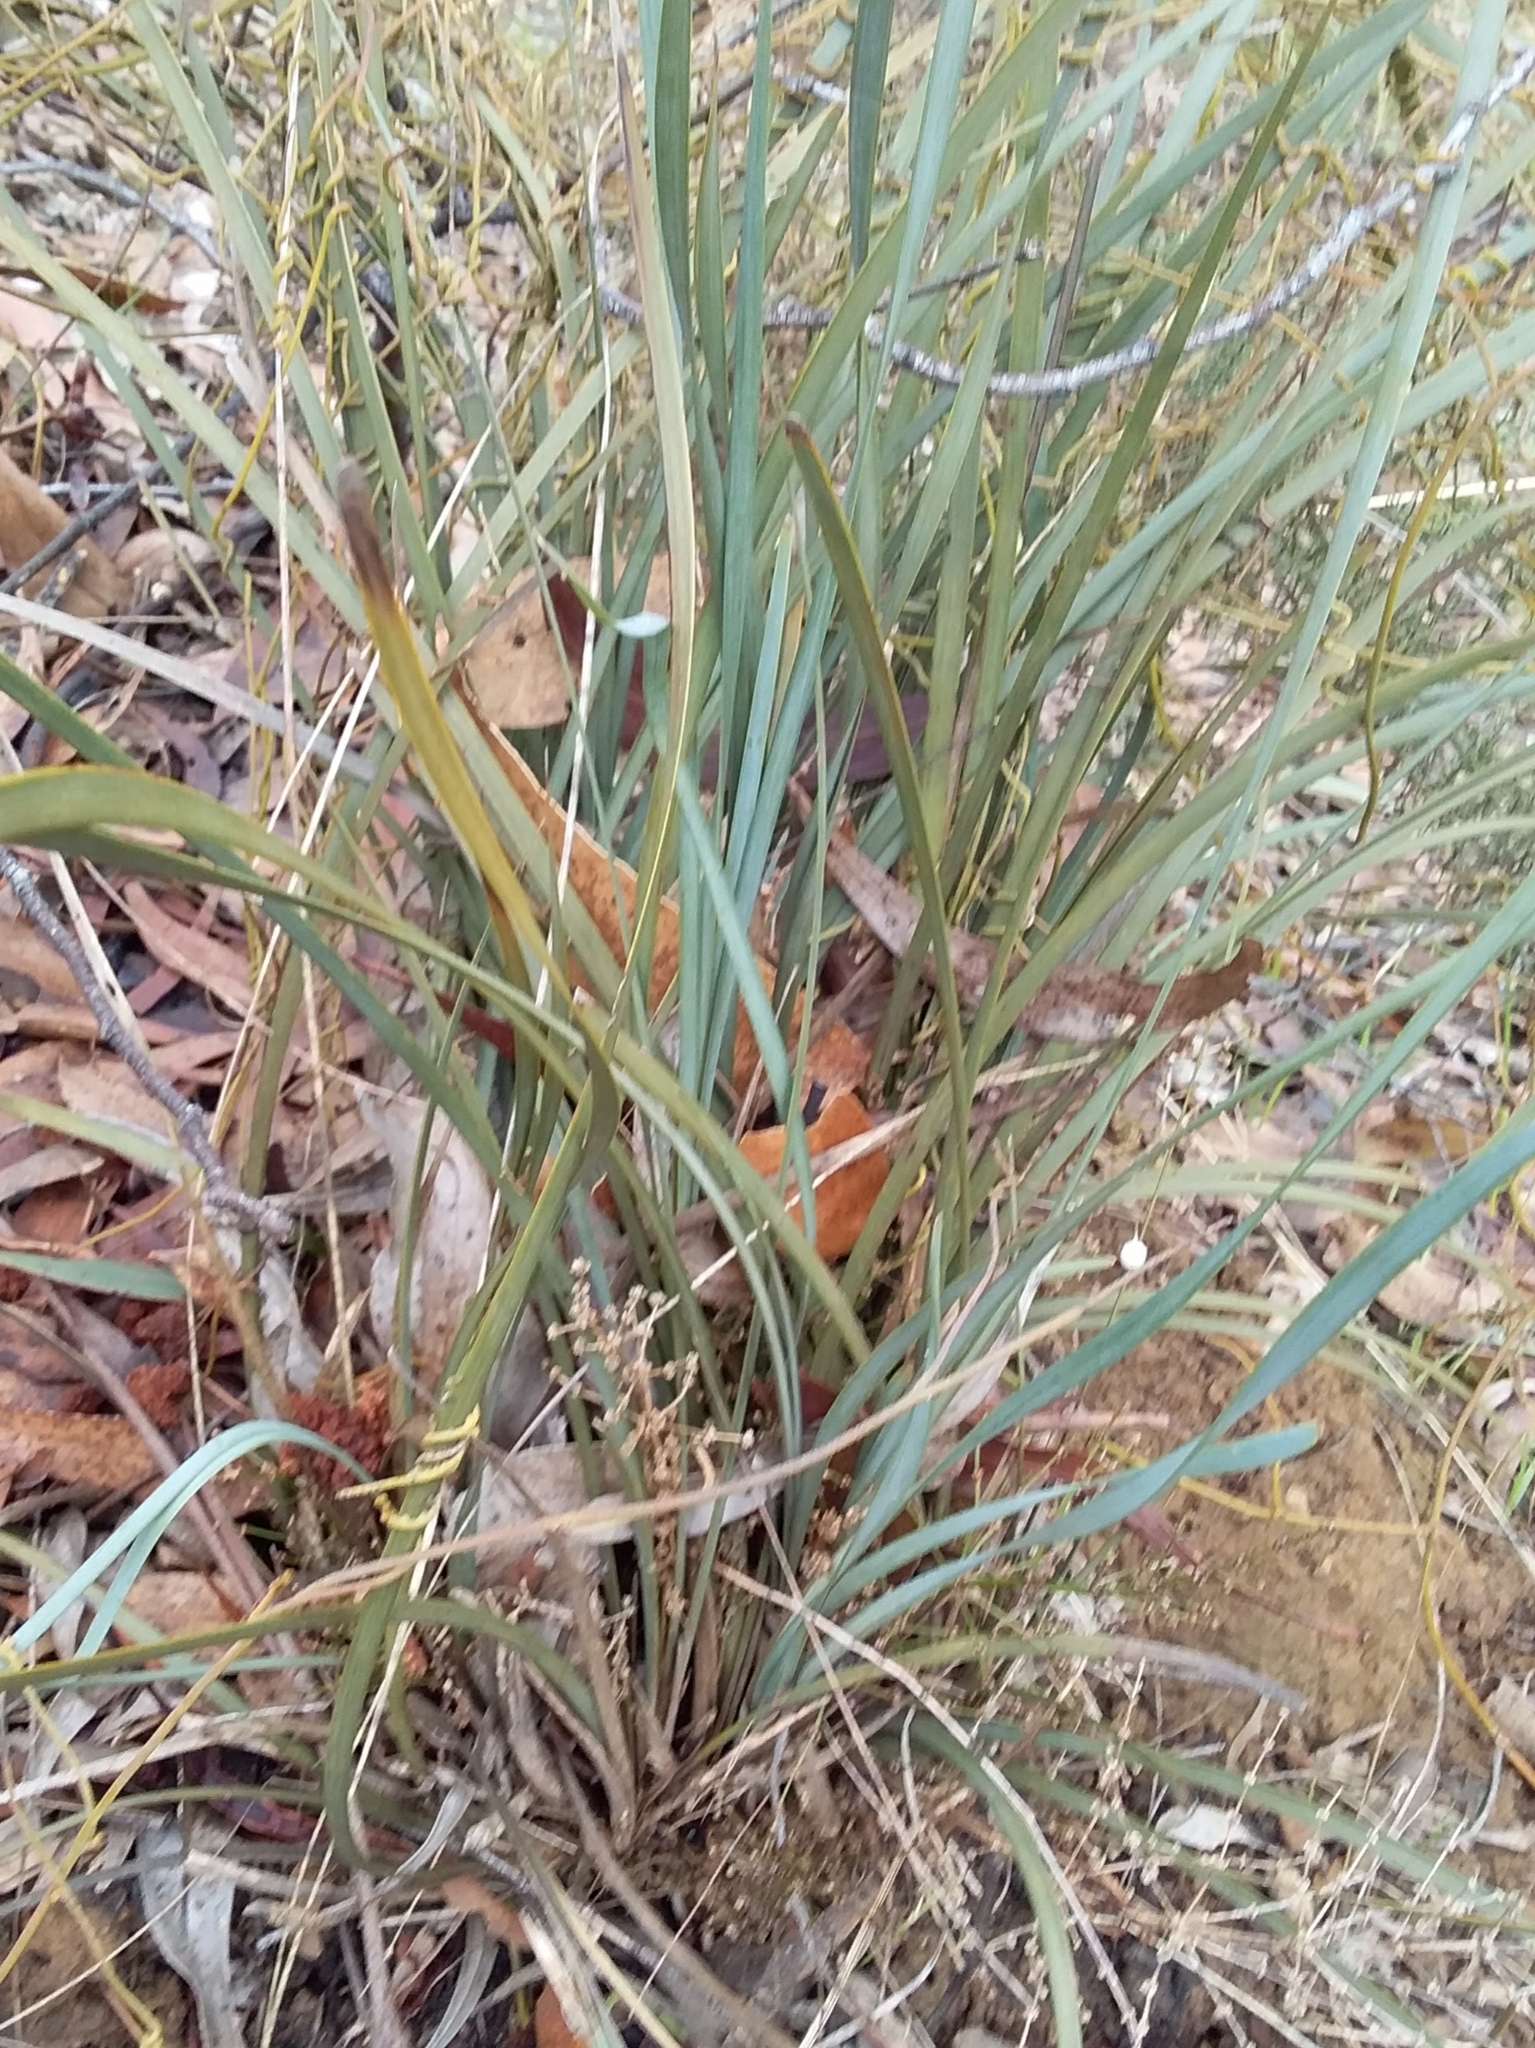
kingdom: Plantae
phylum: Tracheophyta
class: Liliopsida
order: Asparagales
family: Asparagaceae
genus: Lomandra
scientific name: Lomandra multiflora
